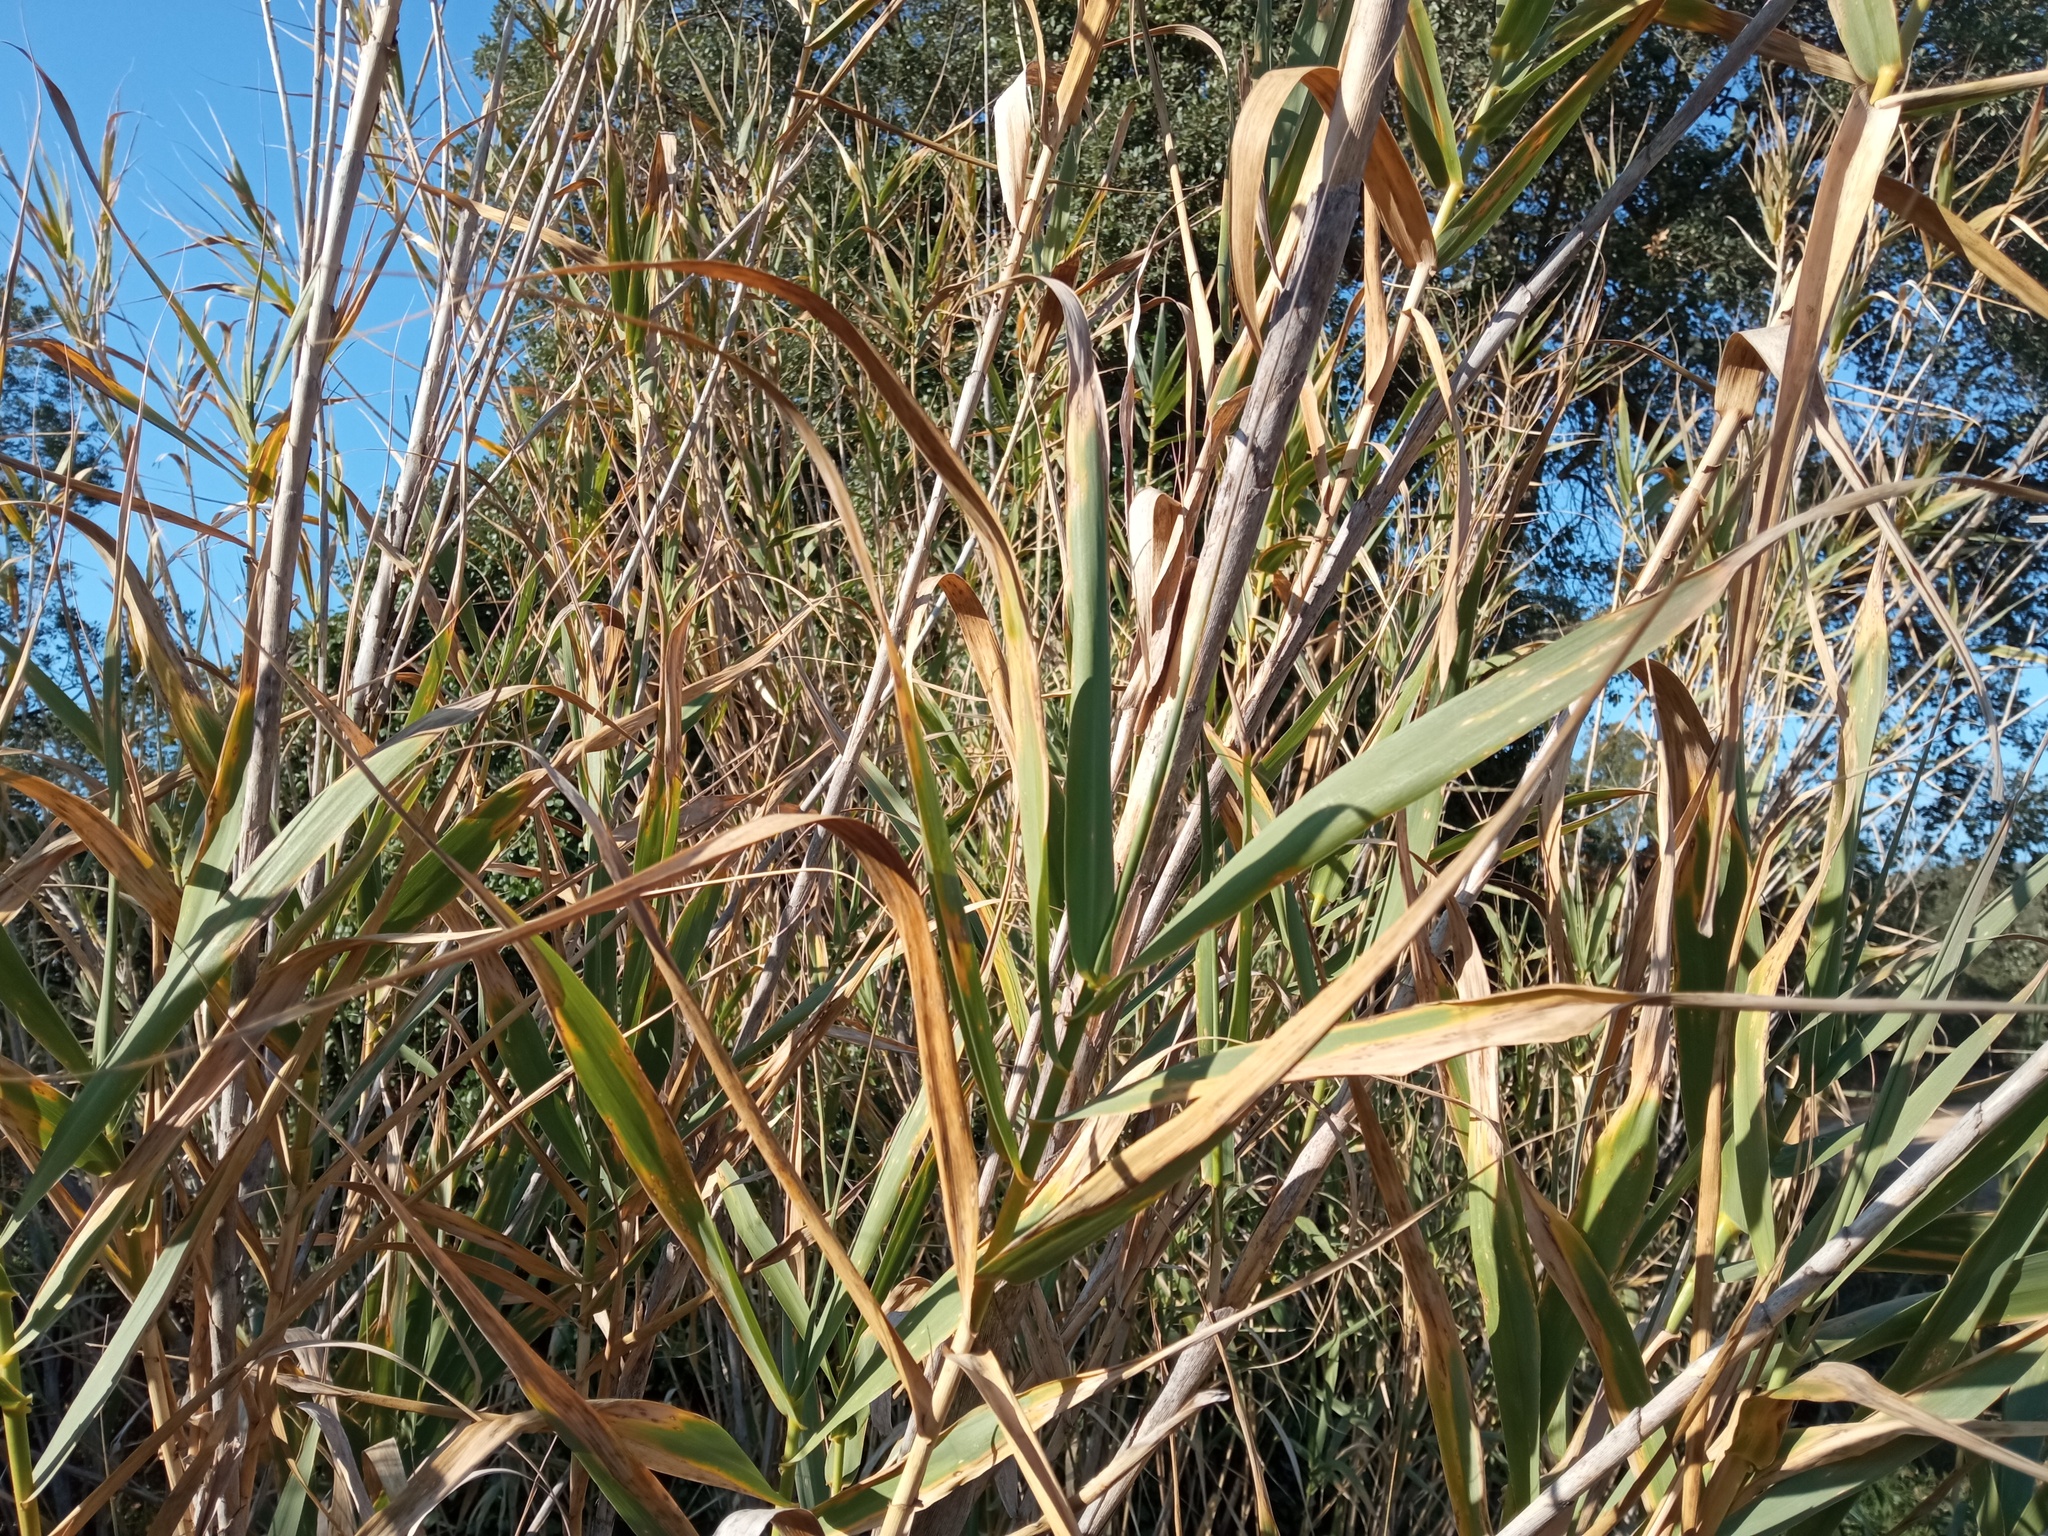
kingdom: Plantae
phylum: Tracheophyta
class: Liliopsida
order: Poales
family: Poaceae
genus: Arundo
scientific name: Arundo donax
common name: Giant reed
